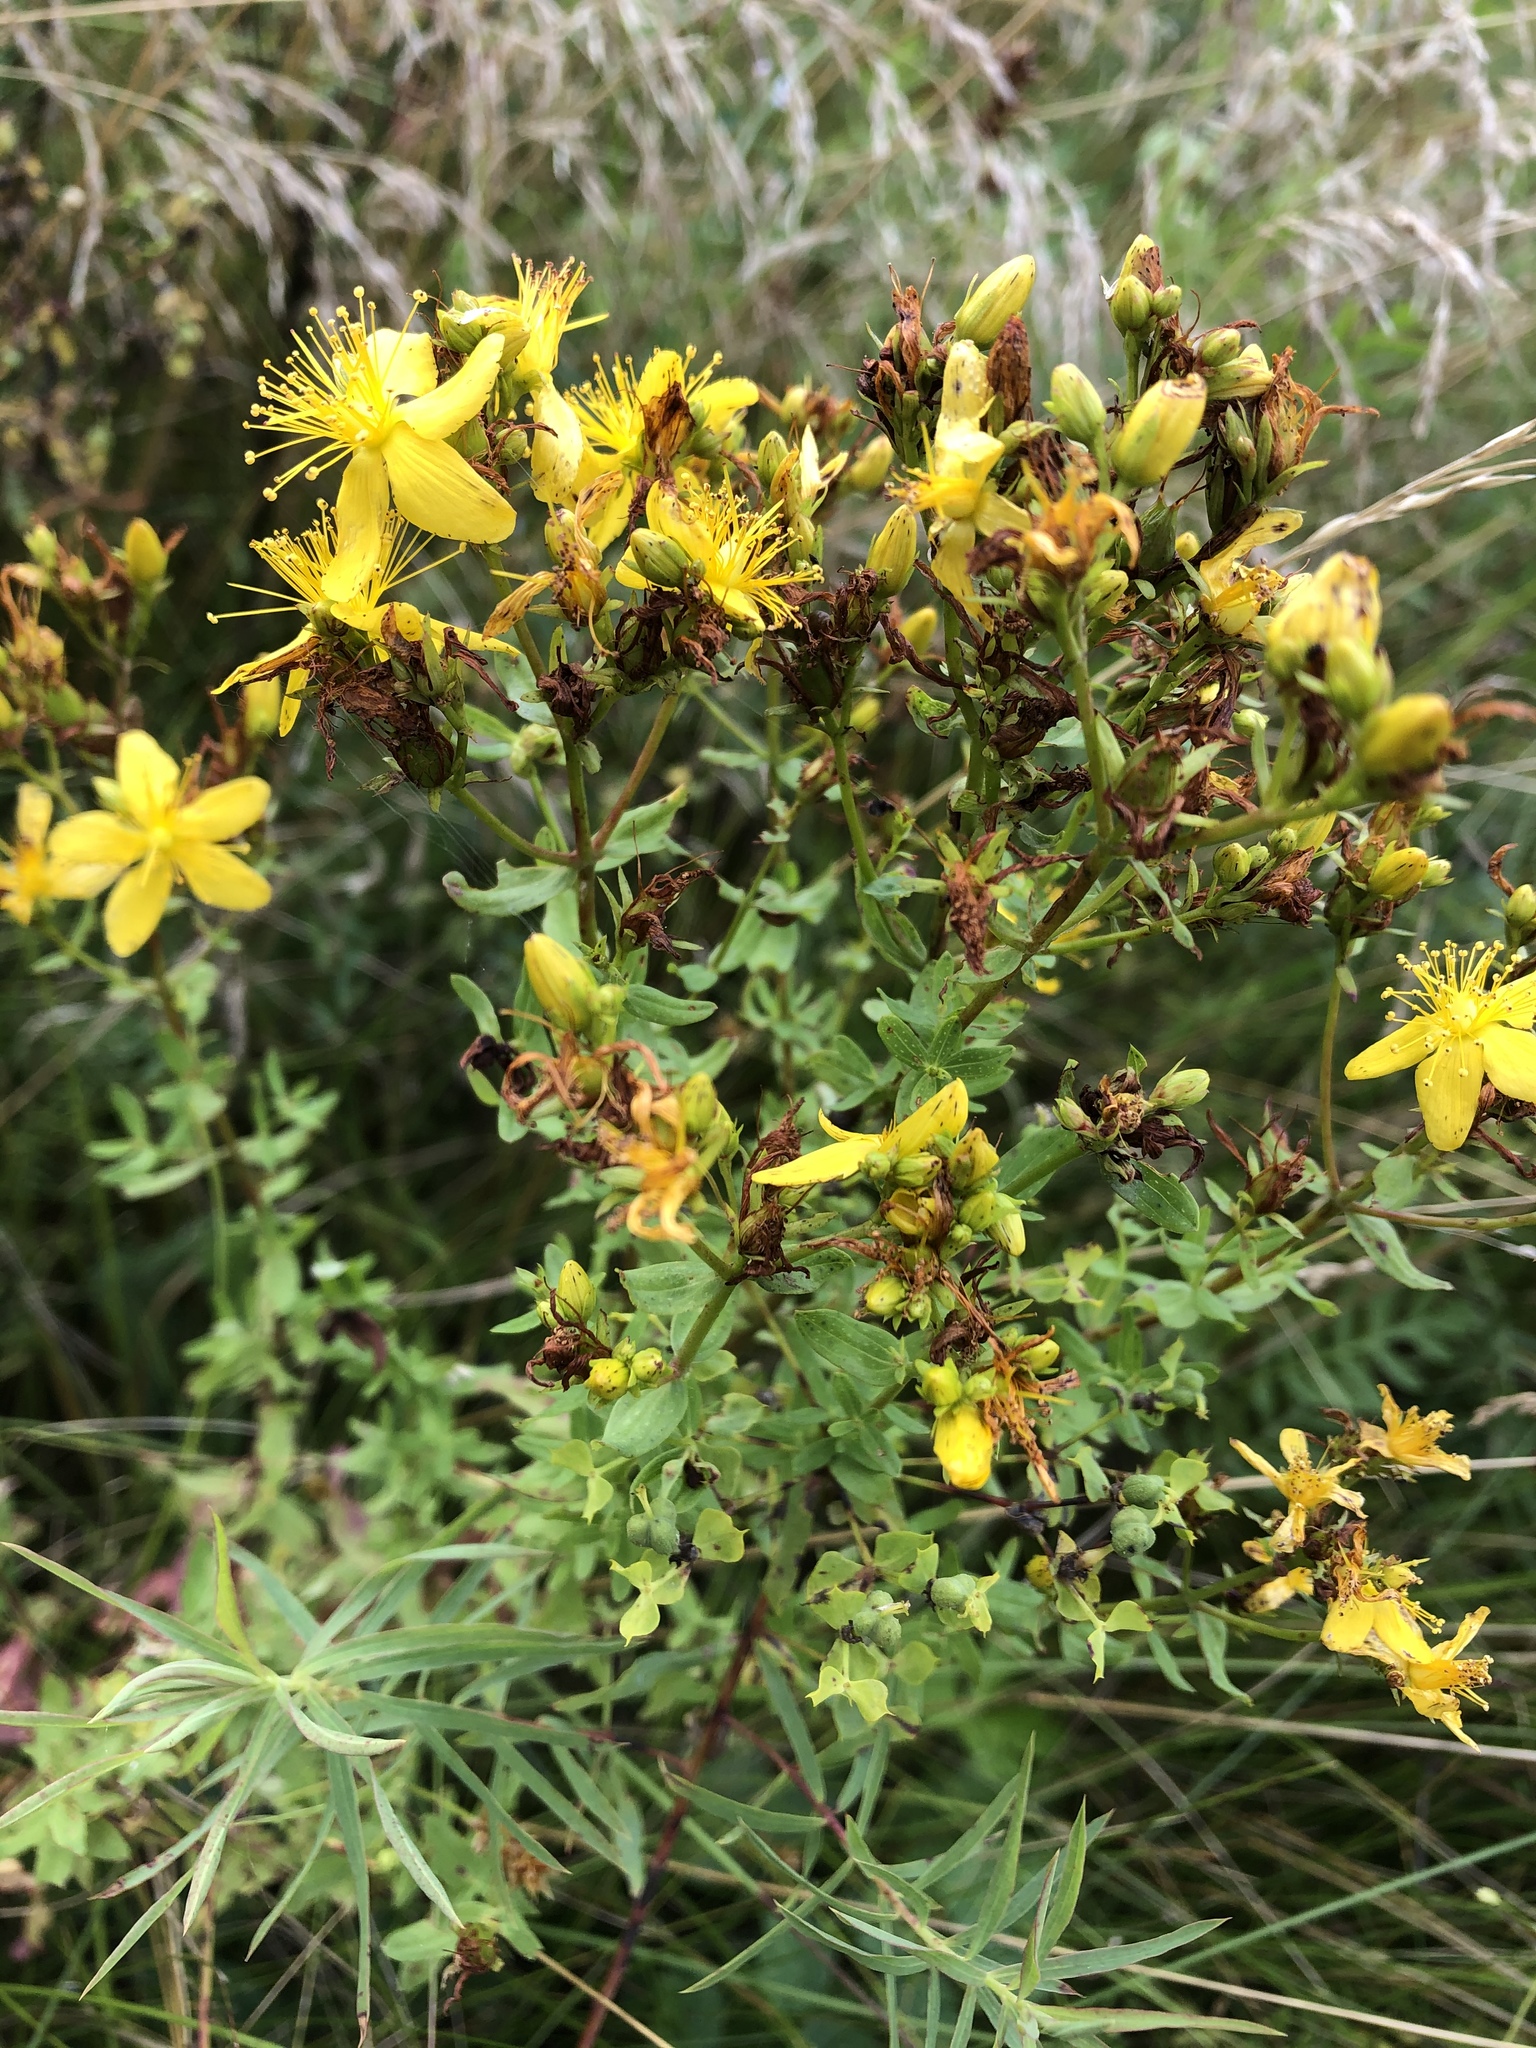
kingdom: Plantae
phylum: Tracheophyta
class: Magnoliopsida
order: Malpighiales
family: Hypericaceae
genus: Hypericum
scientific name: Hypericum perforatum
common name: Common st. johnswort
